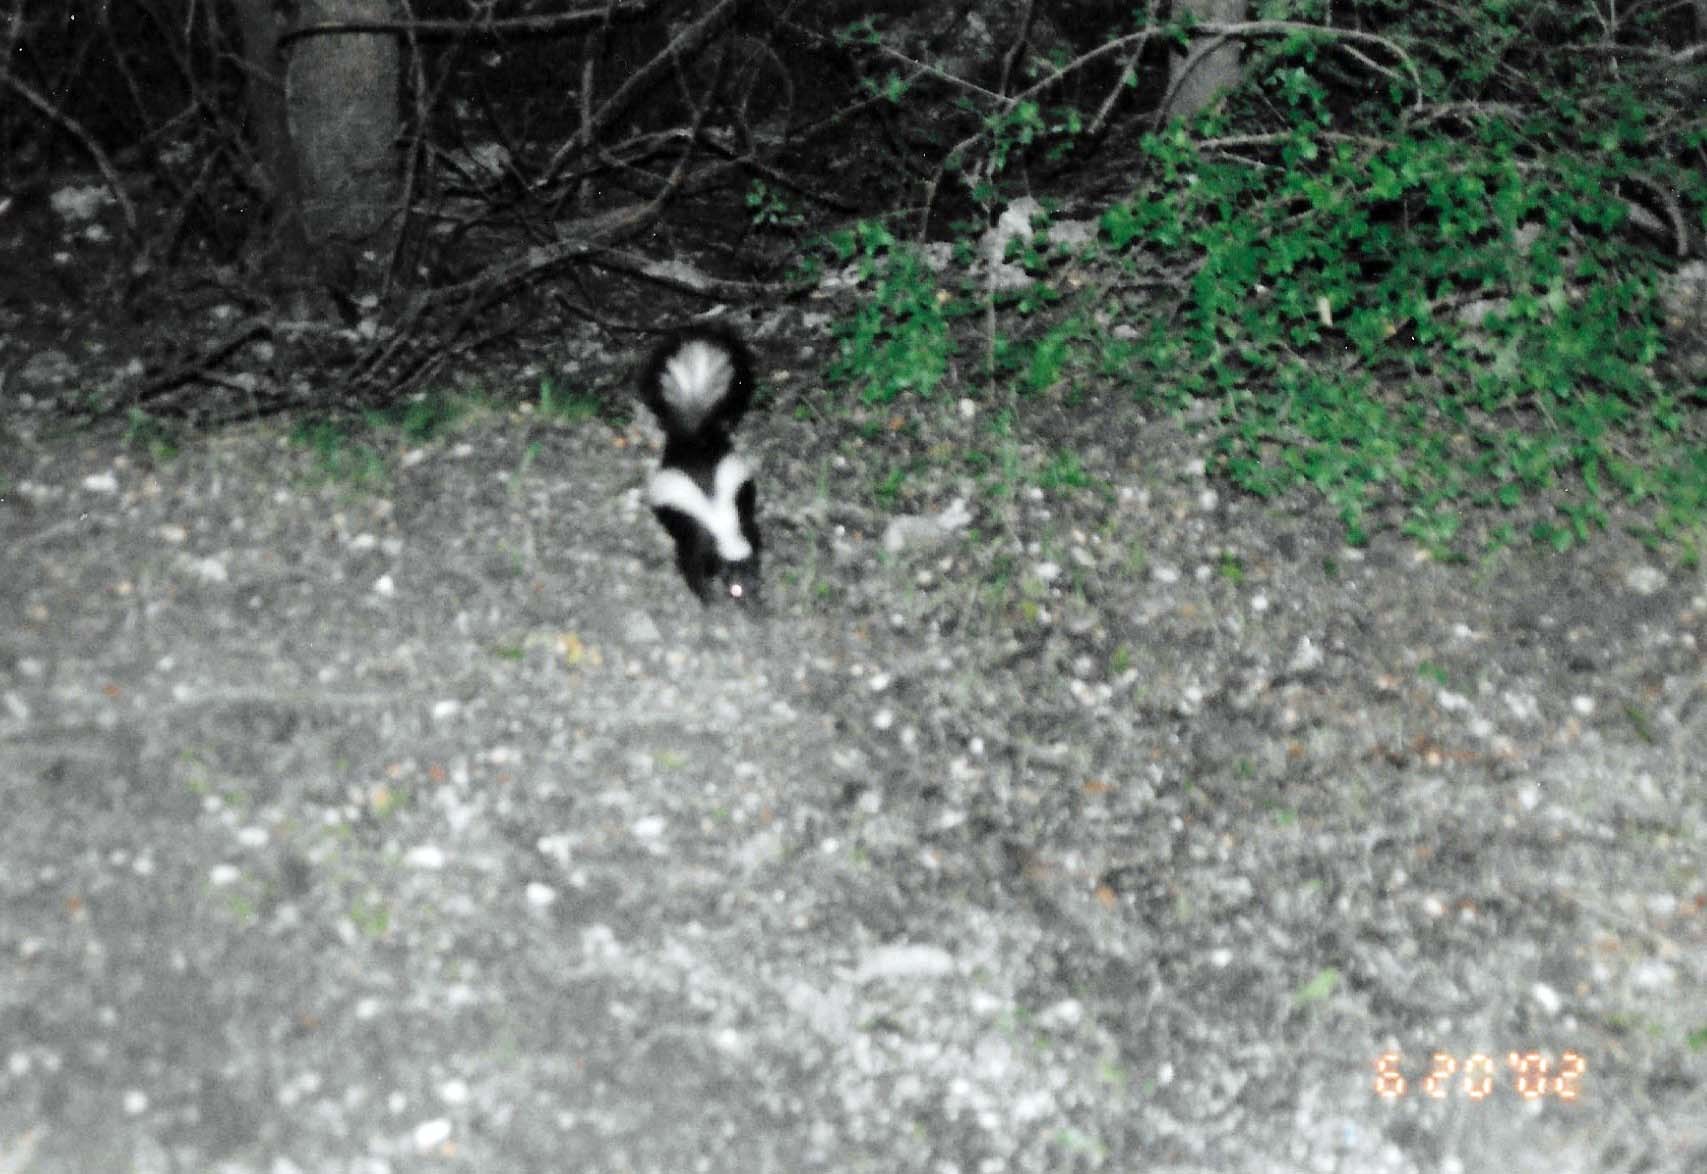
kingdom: Animalia
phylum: Chordata
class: Mammalia
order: Carnivora
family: Mephitidae
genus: Mephitis
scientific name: Mephitis mephitis
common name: Striped skunk
